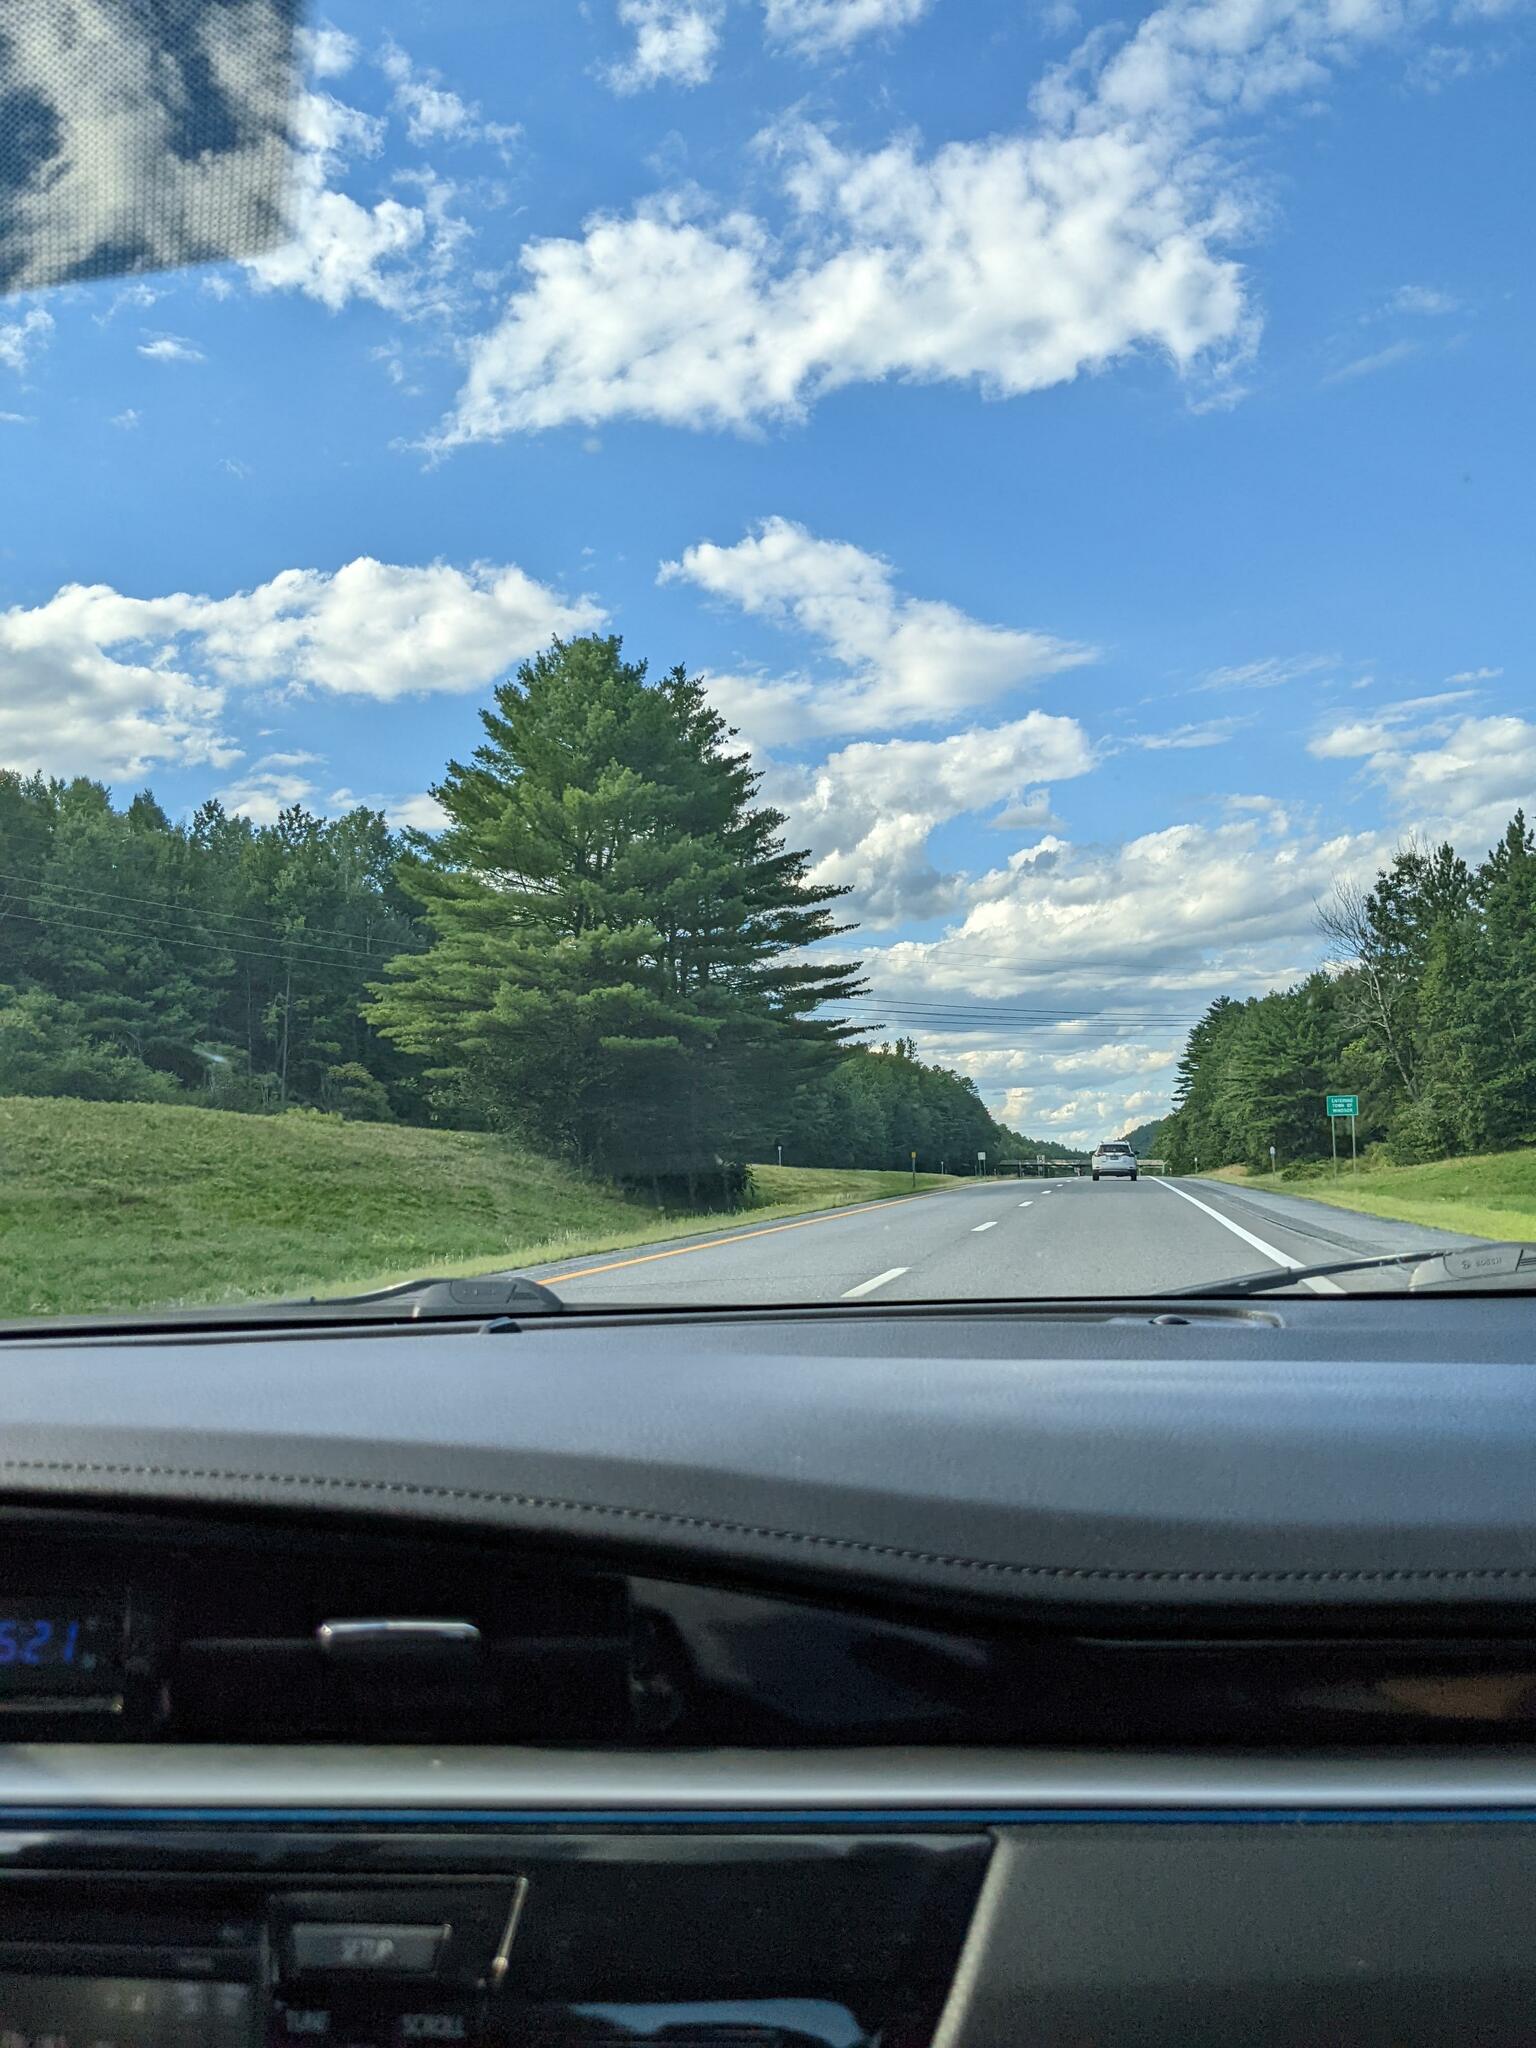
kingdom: Plantae
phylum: Tracheophyta
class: Pinopsida
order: Pinales
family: Pinaceae
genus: Pinus
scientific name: Pinus strobus
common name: Weymouth pine
